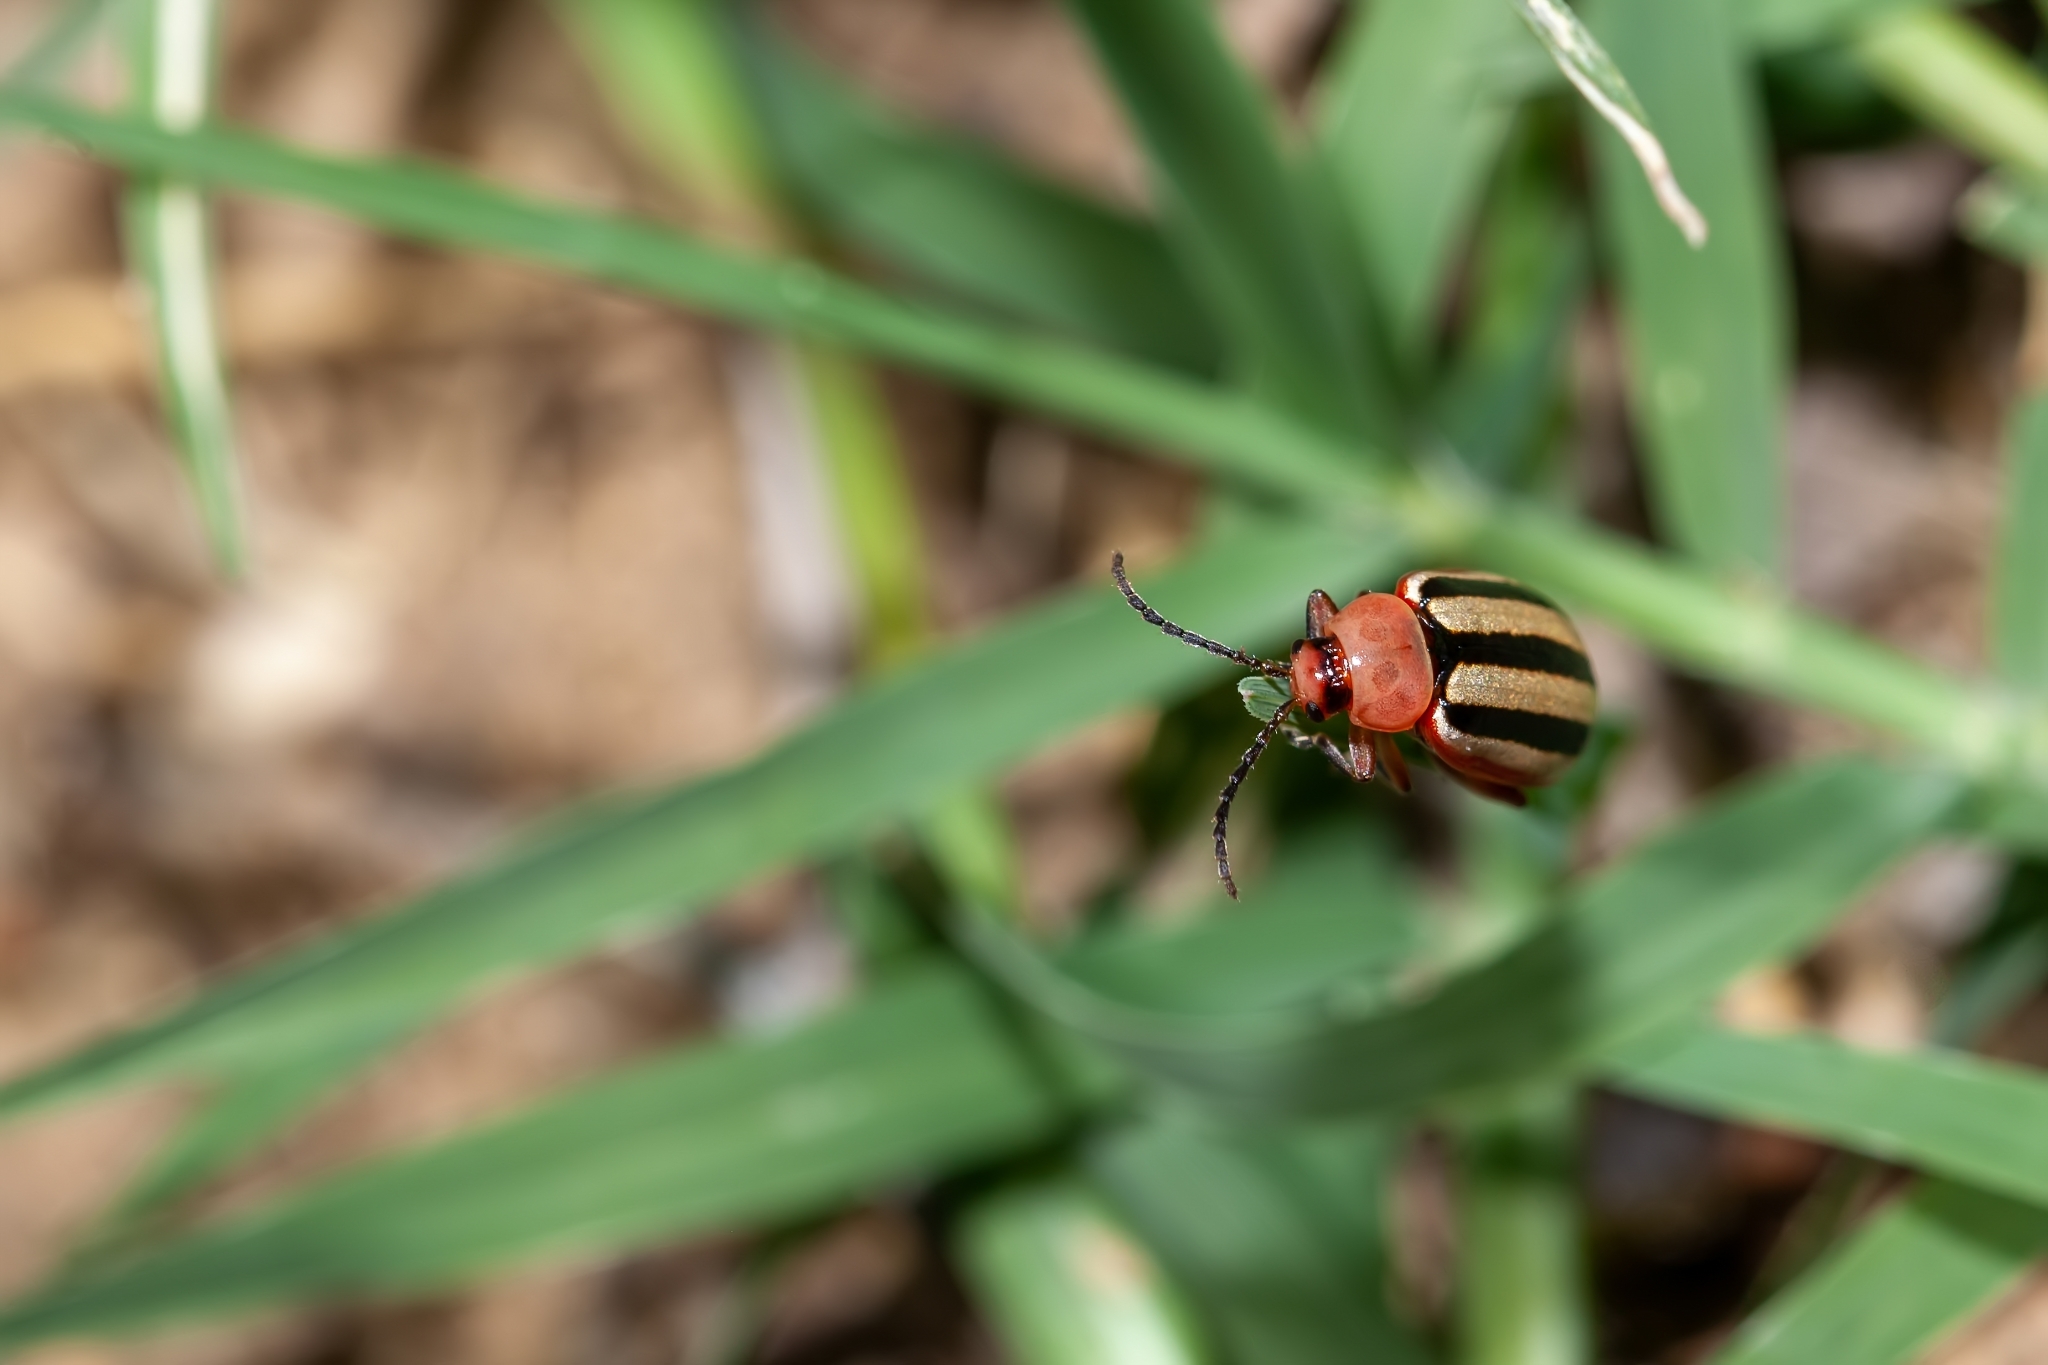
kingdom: Animalia
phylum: Arthropoda
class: Insecta
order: Coleoptera
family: Chrysomelidae
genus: Disonycha
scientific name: Disonycha leptolineata
